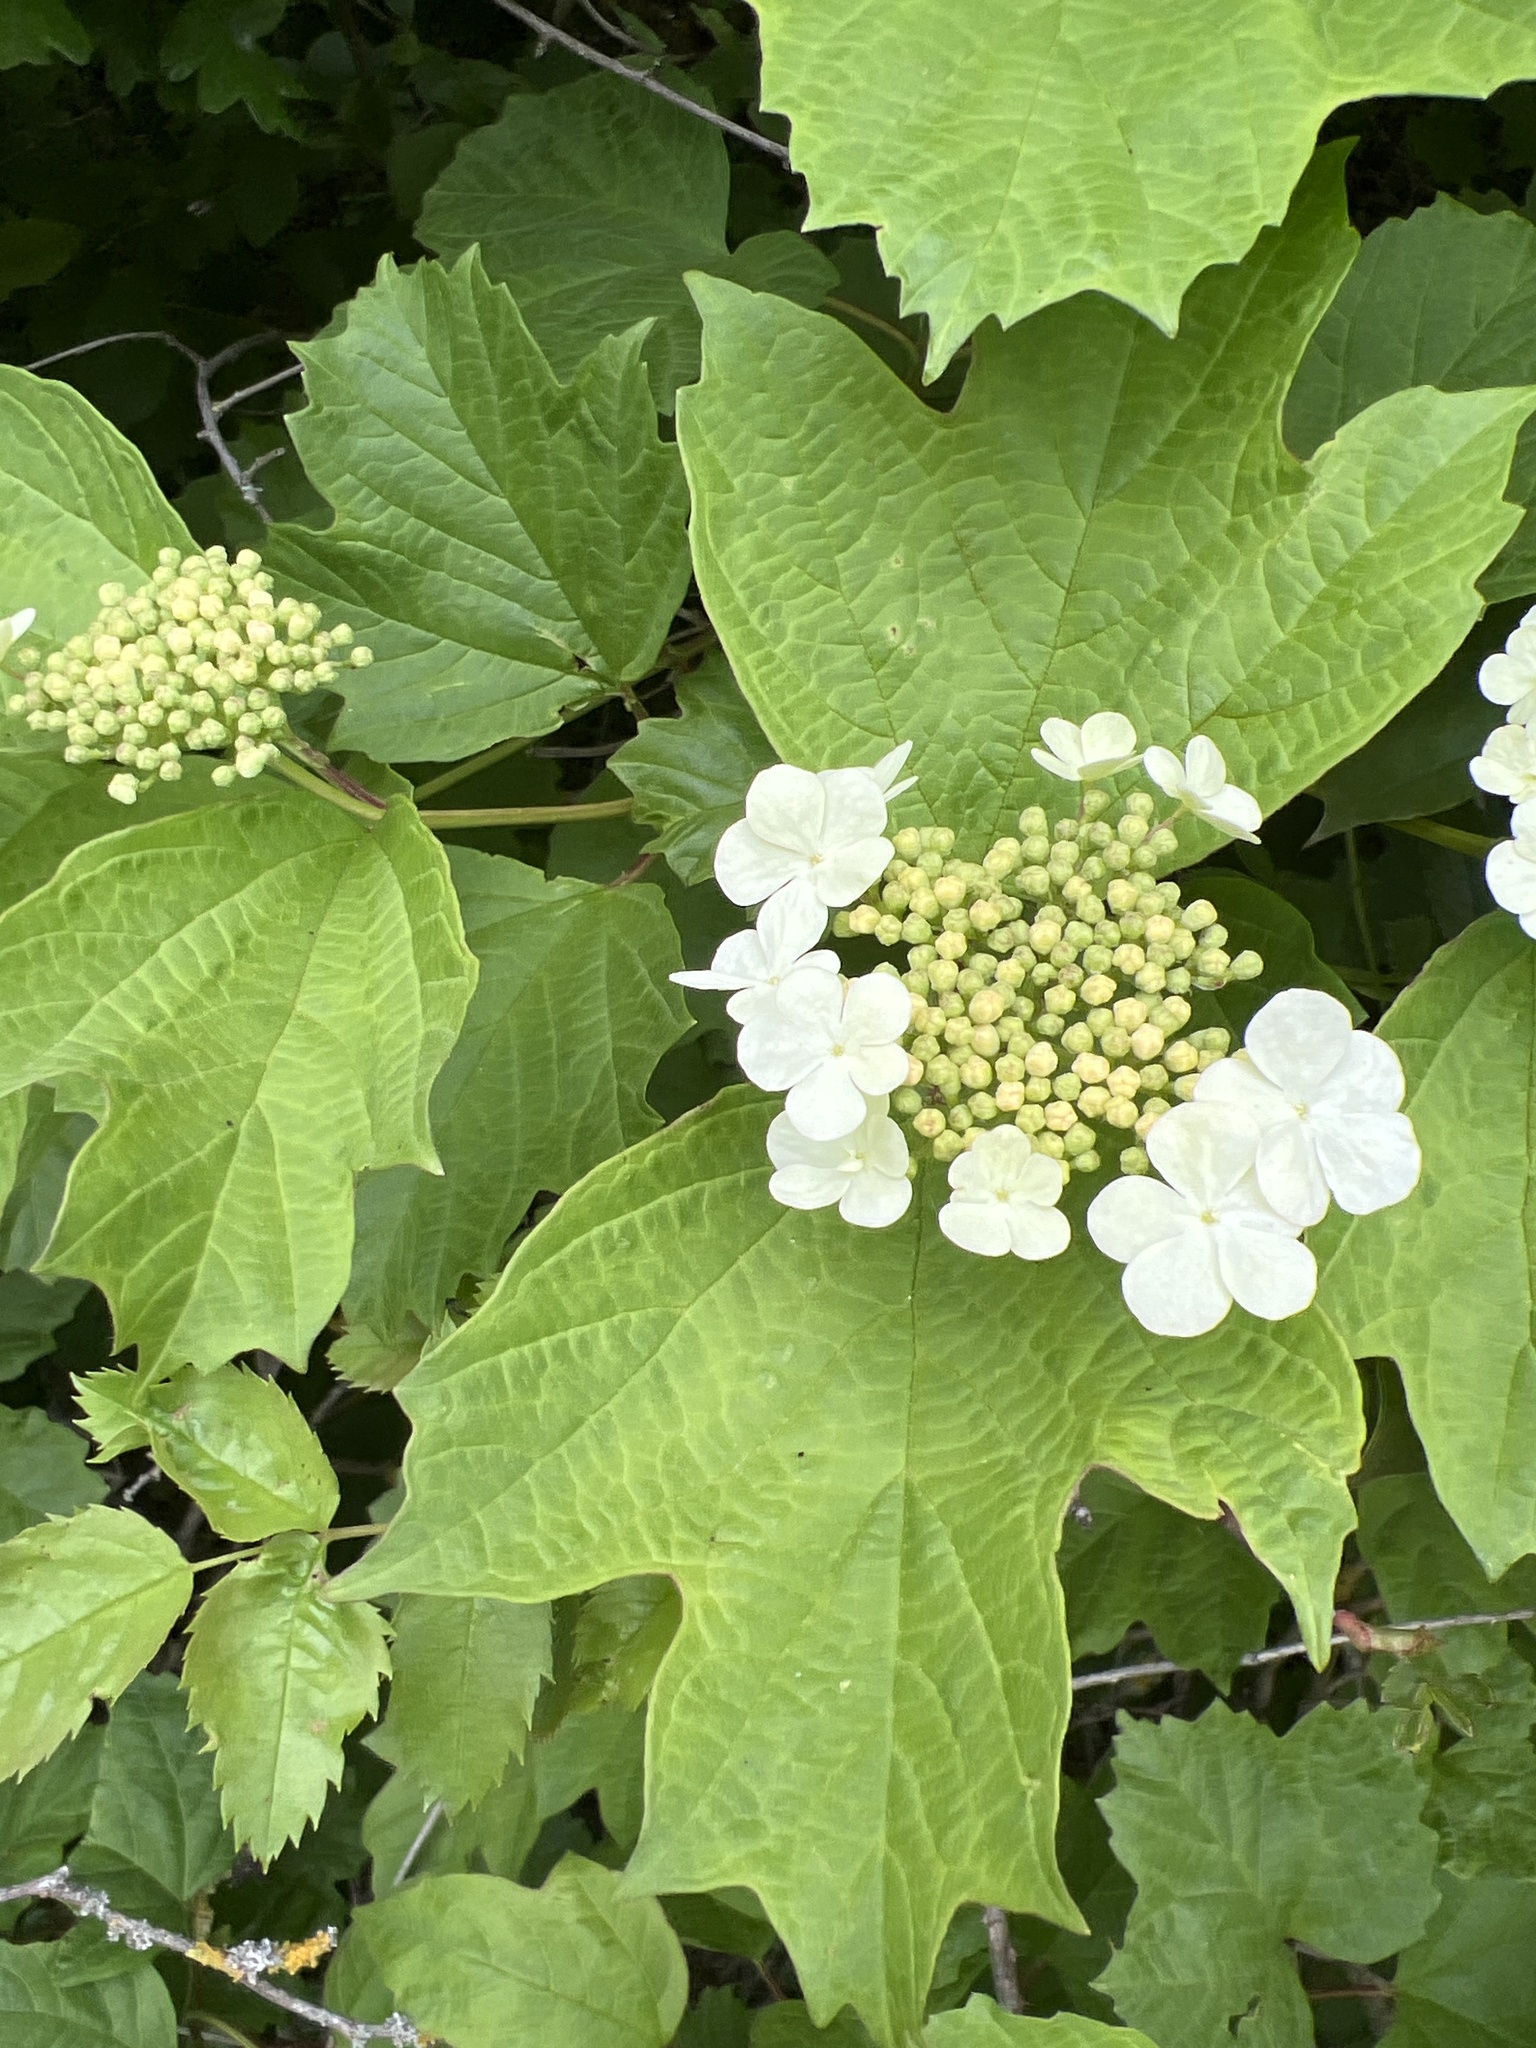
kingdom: Plantae
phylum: Tracheophyta
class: Magnoliopsida
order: Dipsacales
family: Viburnaceae
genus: Viburnum
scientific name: Viburnum opulus
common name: Guelder-rose
